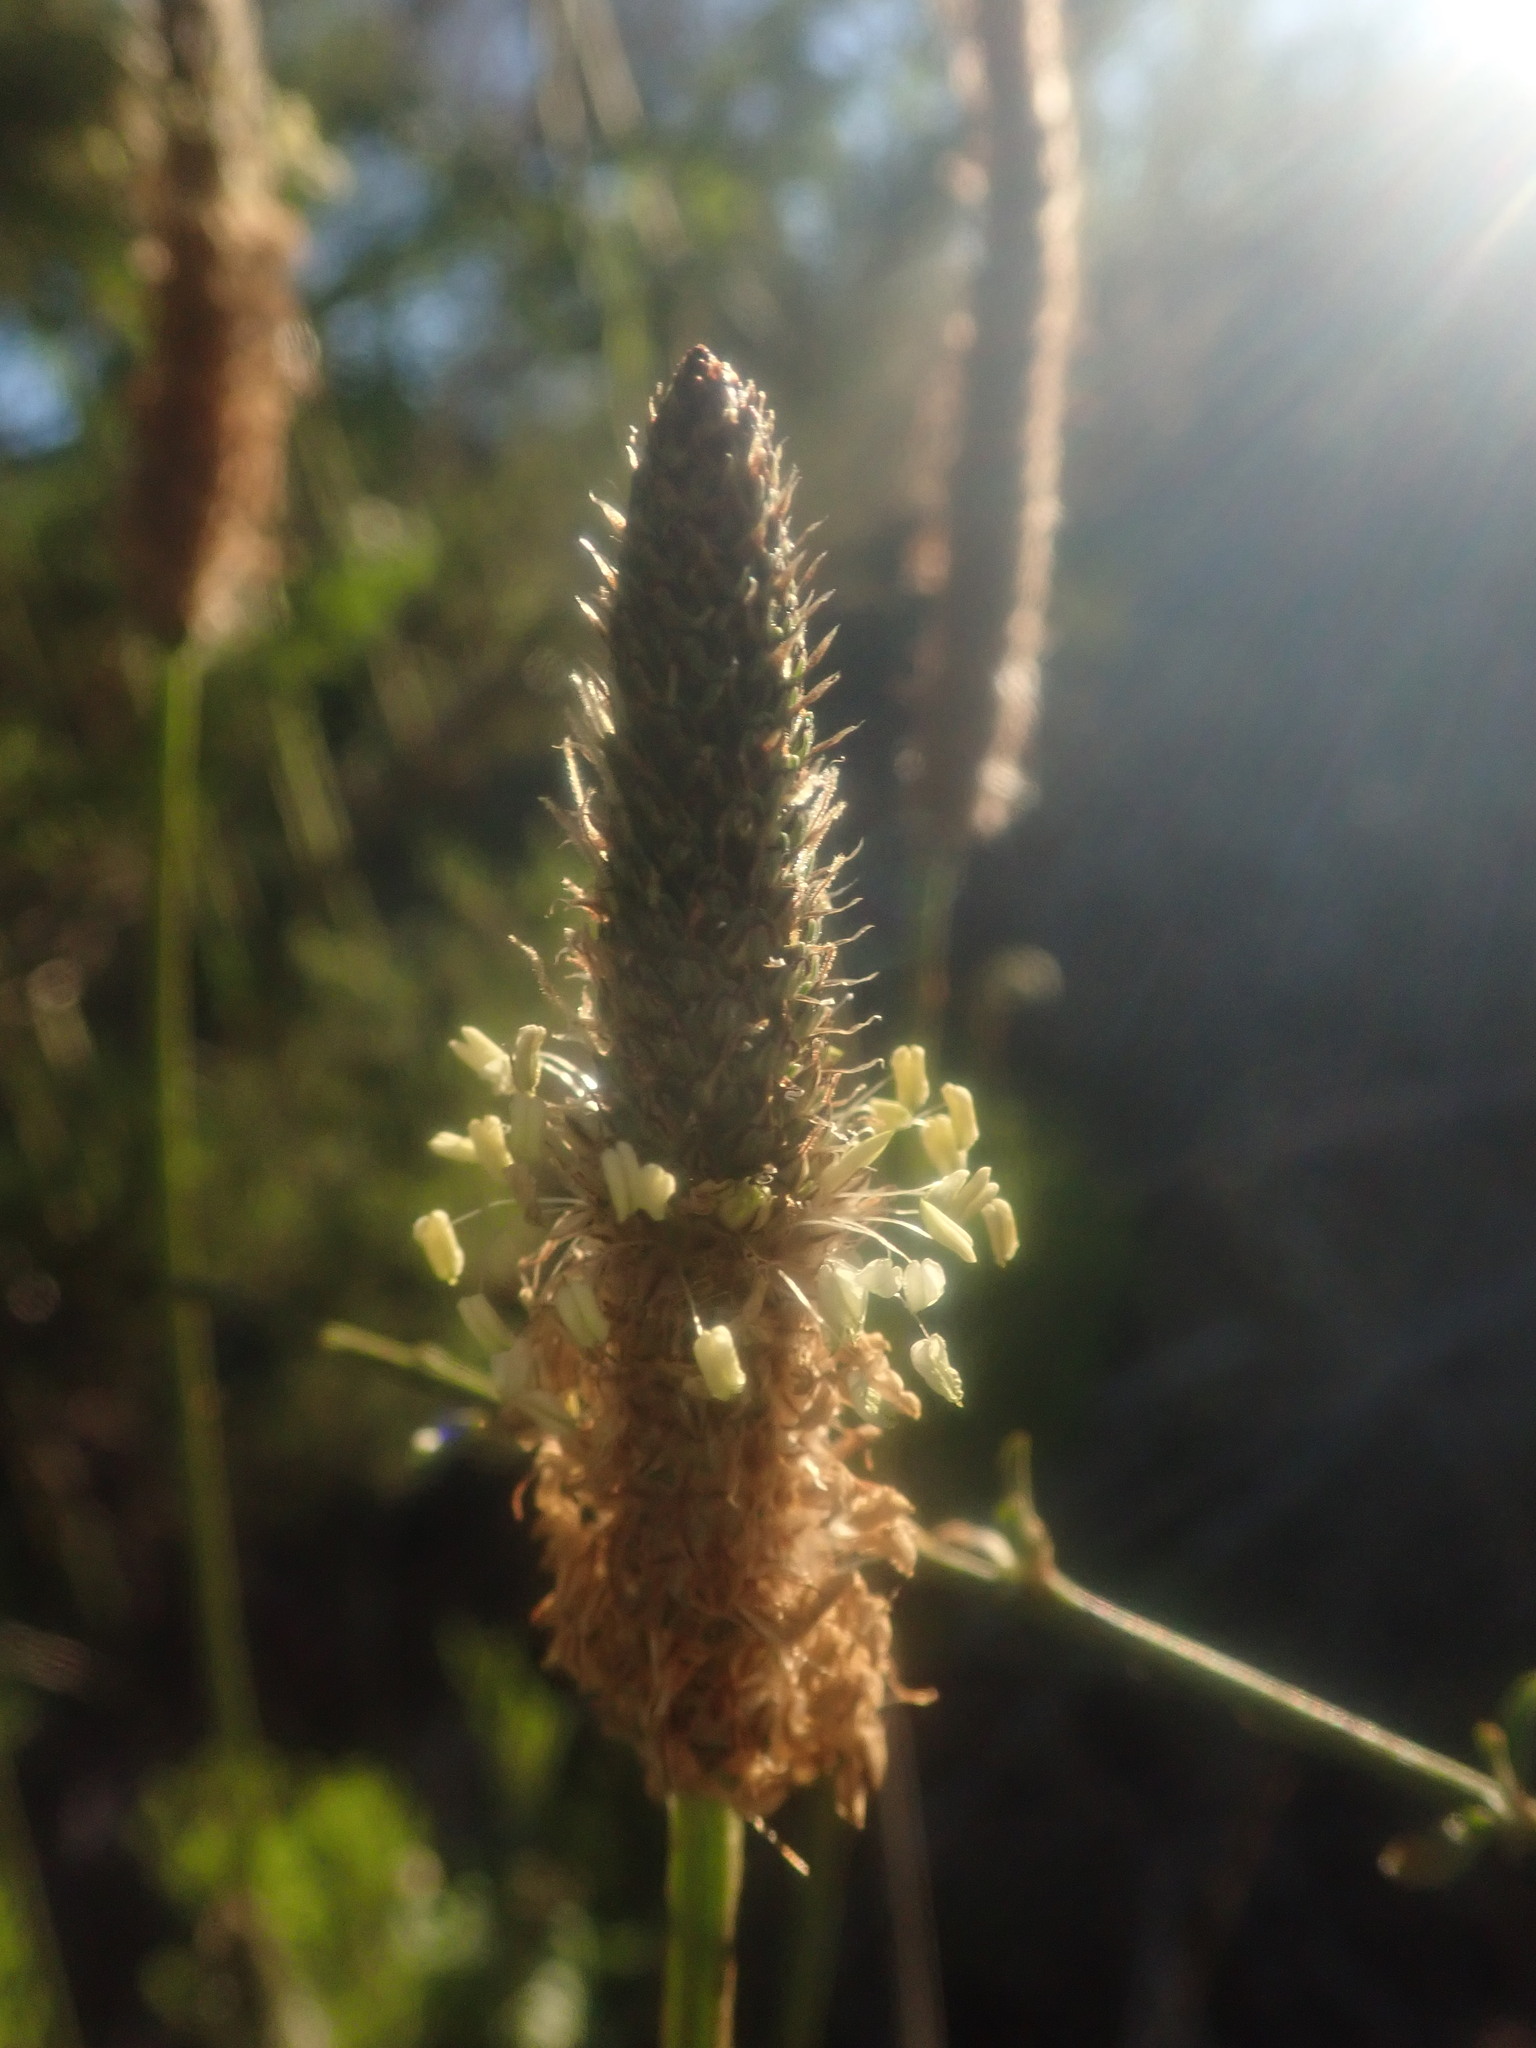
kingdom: Plantae
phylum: Tracheophyta
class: Magnoliopsida
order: Lamiales
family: Plantaginaceae
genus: Plantago
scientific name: Plantago lanceolata
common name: Ribwort plantain
